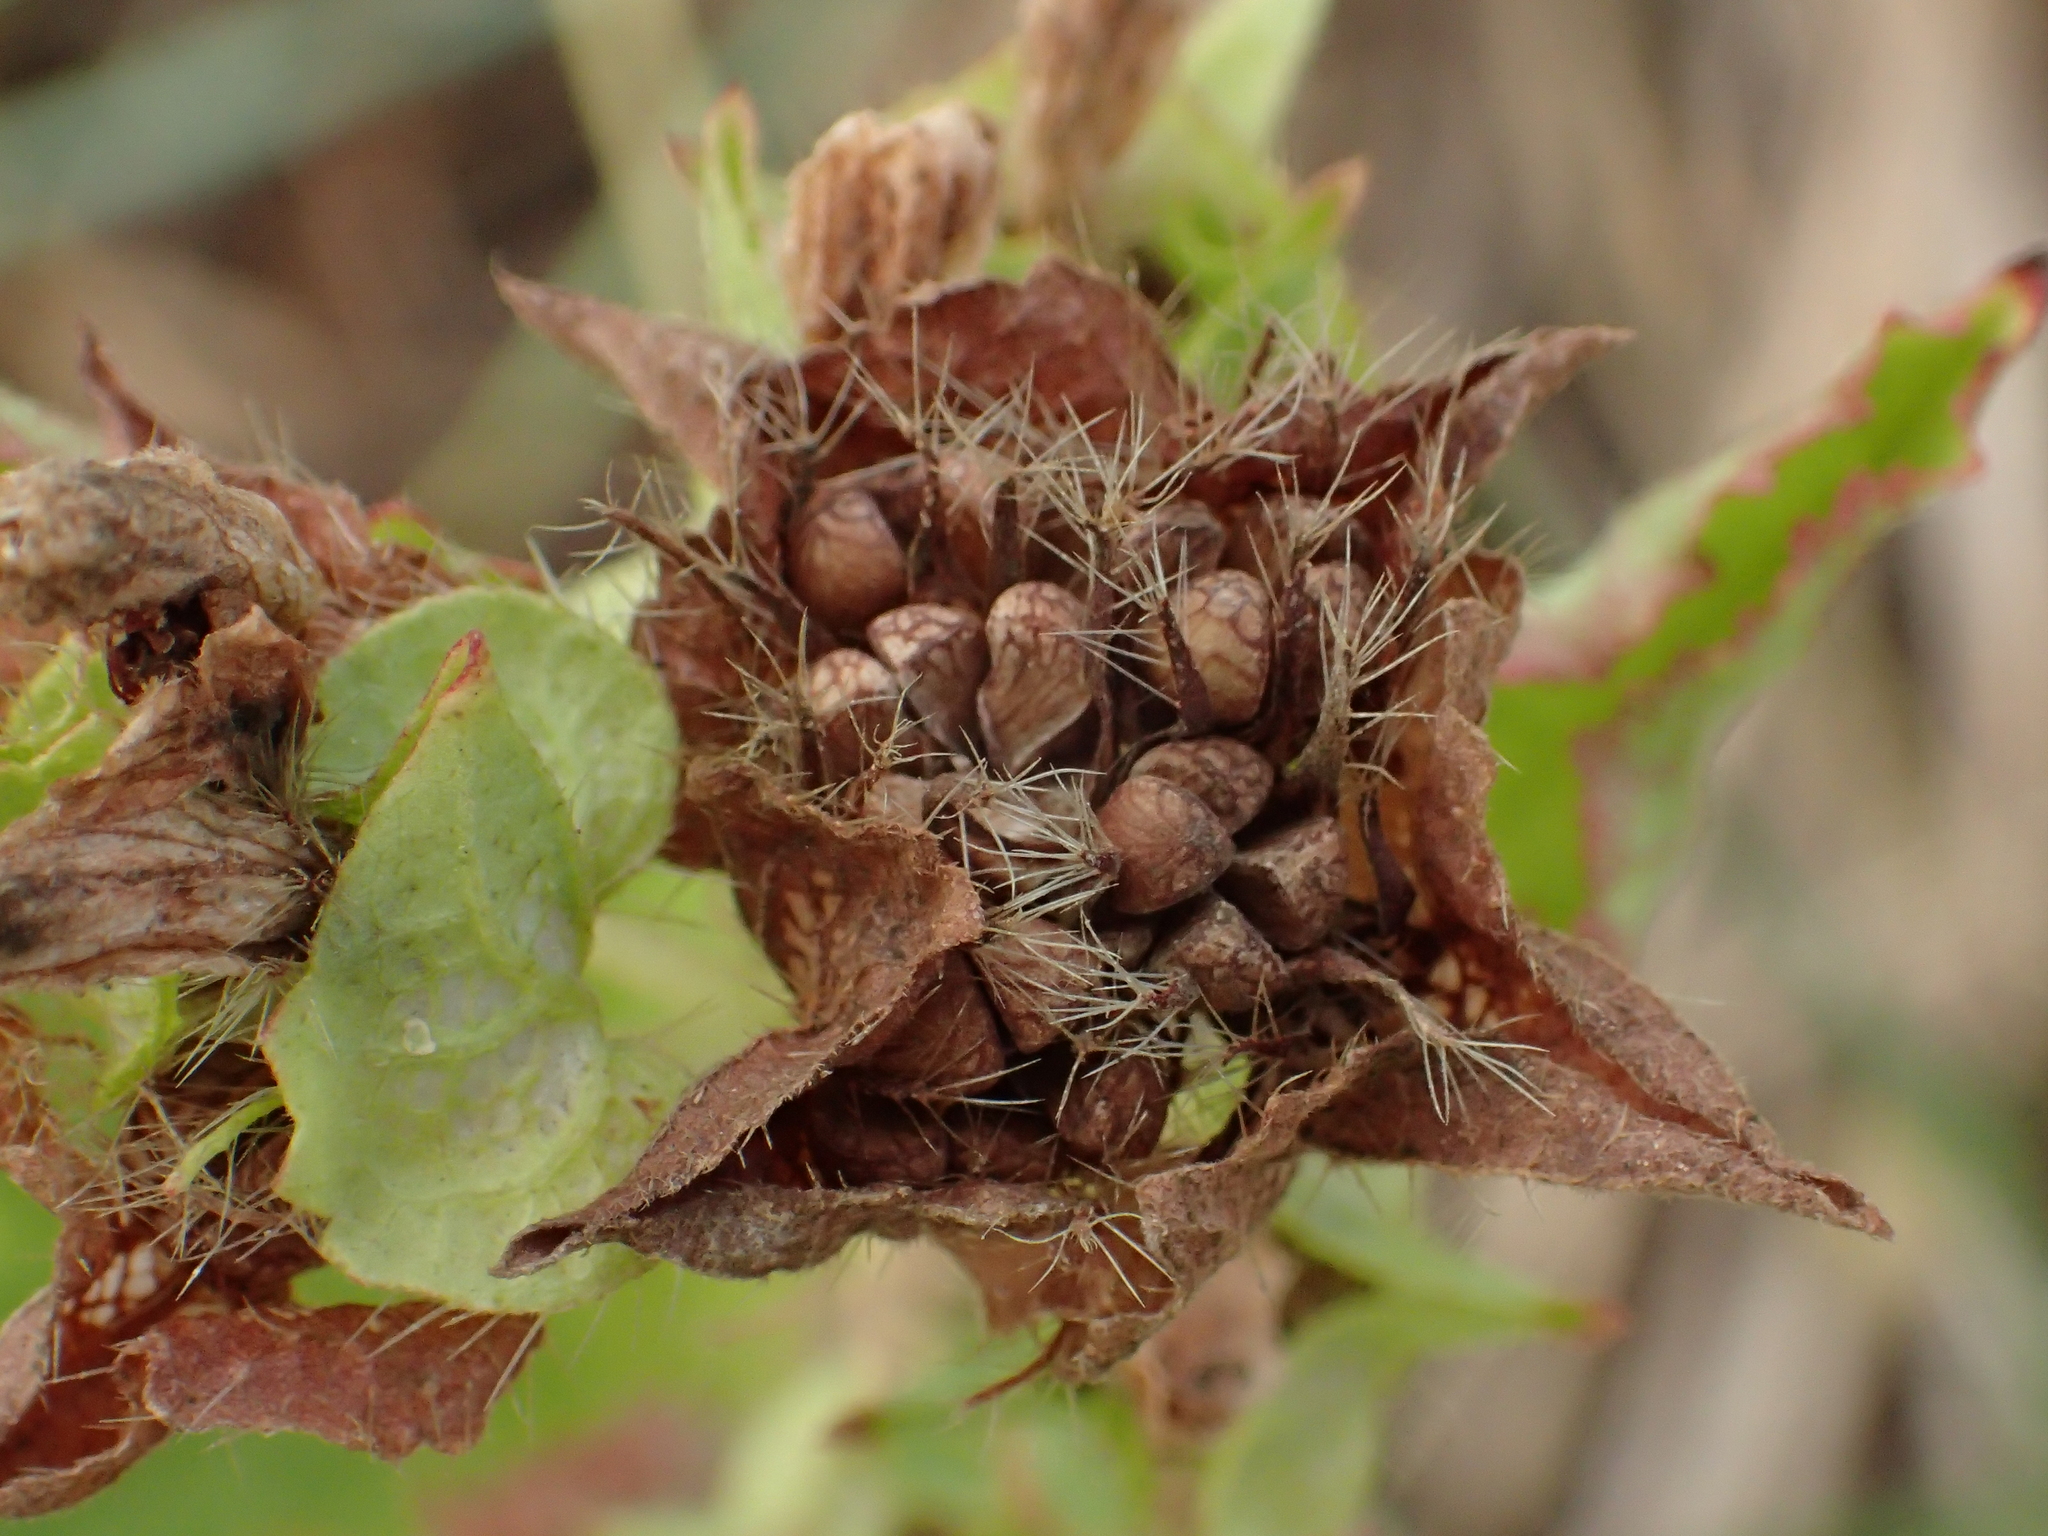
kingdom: Plantae
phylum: Tracheophyta
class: Magnoliopsida
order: Malvales
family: Malvaceae
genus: Malachra
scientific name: Malachra capitata
